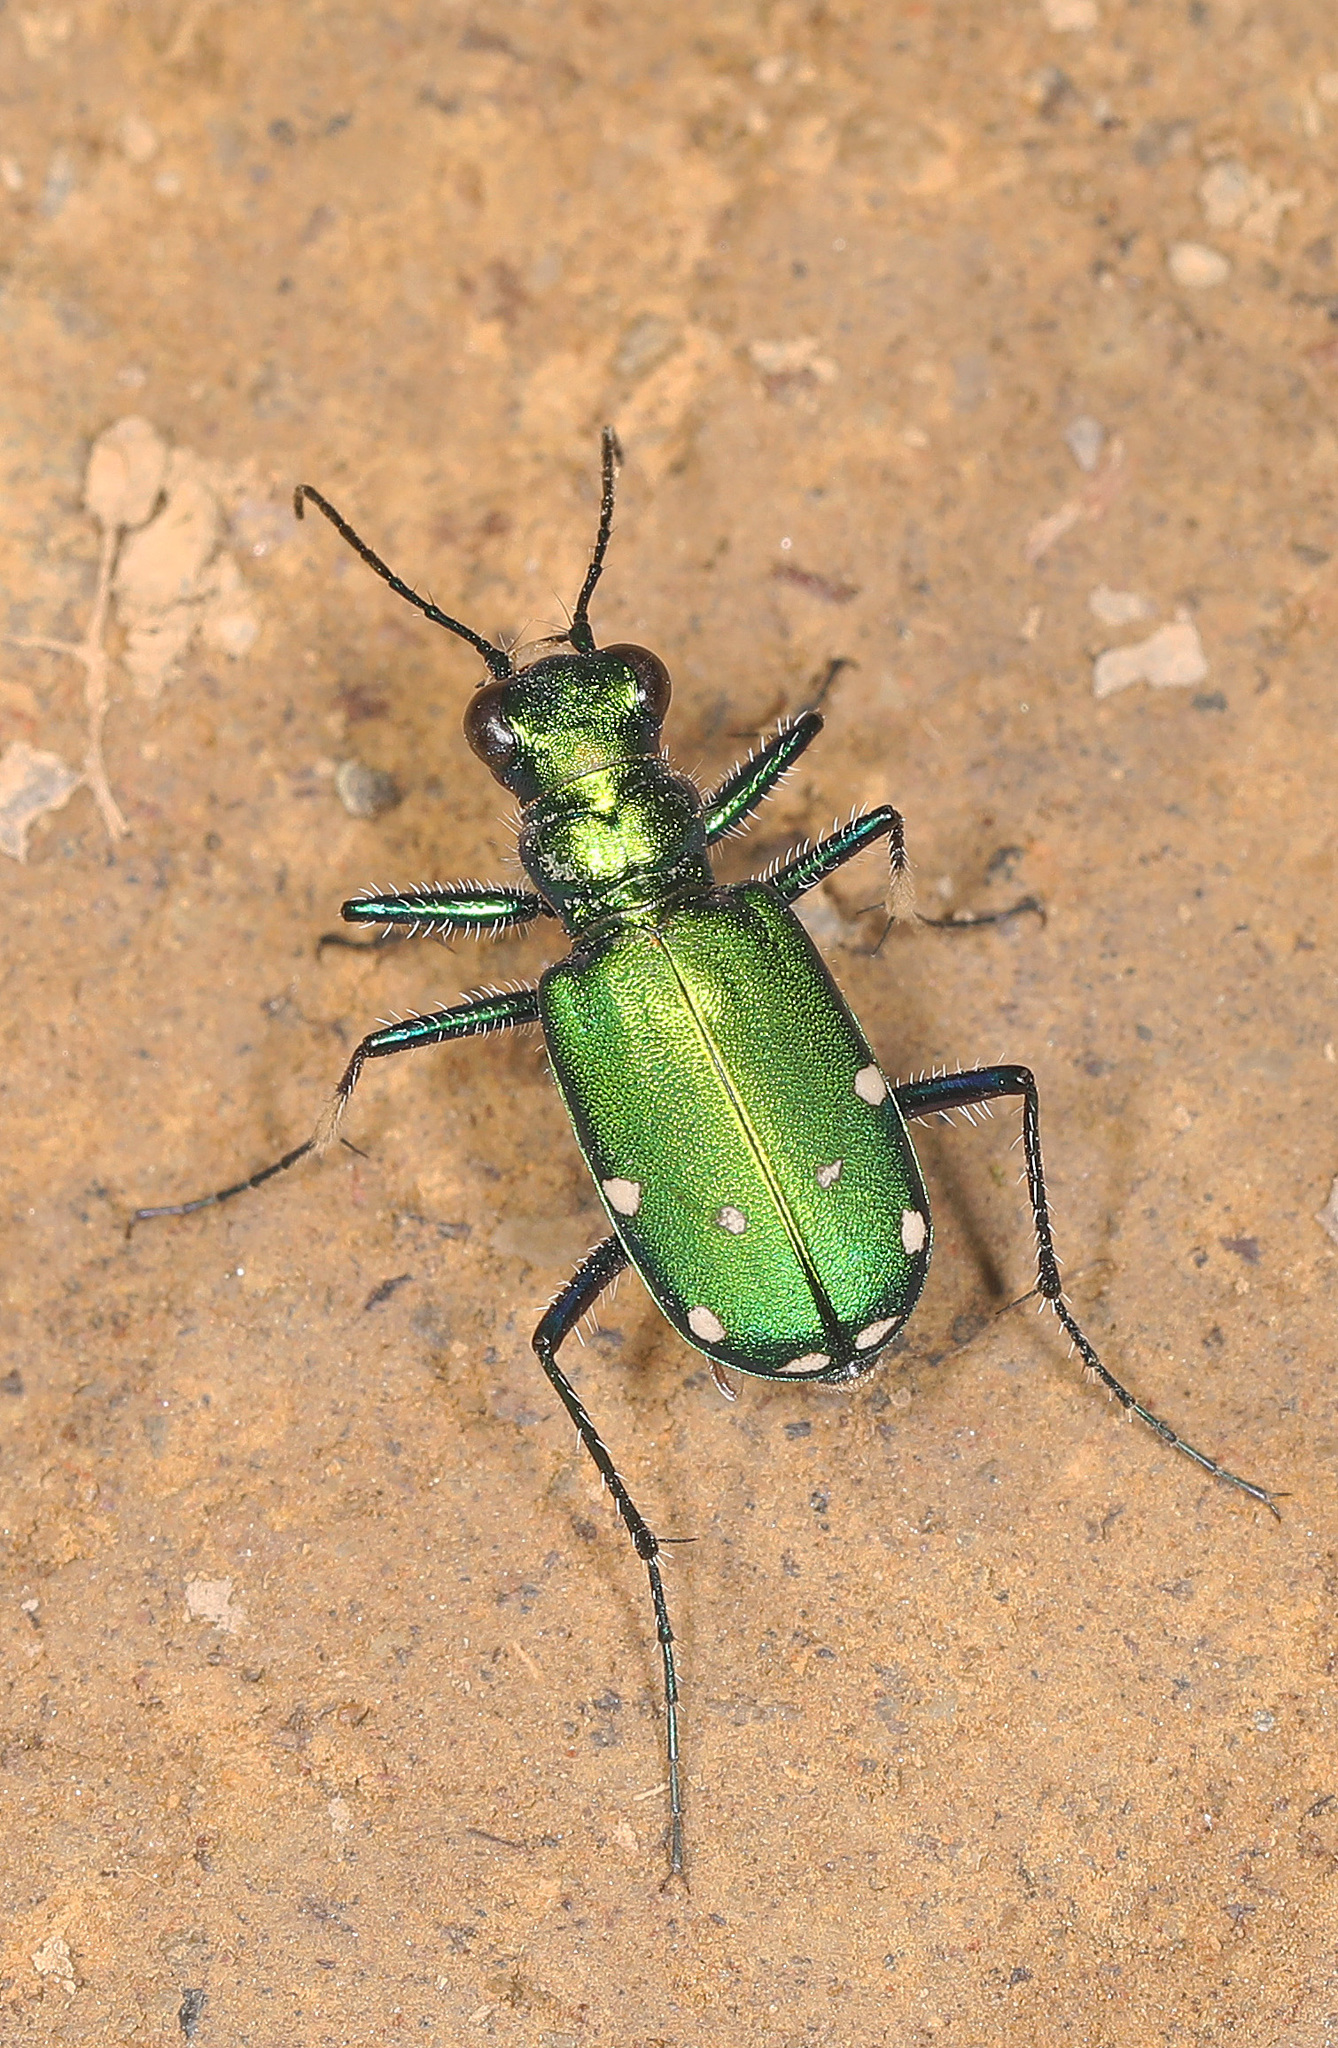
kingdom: Animalia
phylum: Arthropoda
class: Insecta
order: Coleoptera
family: Carabidae
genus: Cicindela
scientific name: Cicindela sexguttata
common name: Six-spotted tiger beetle
